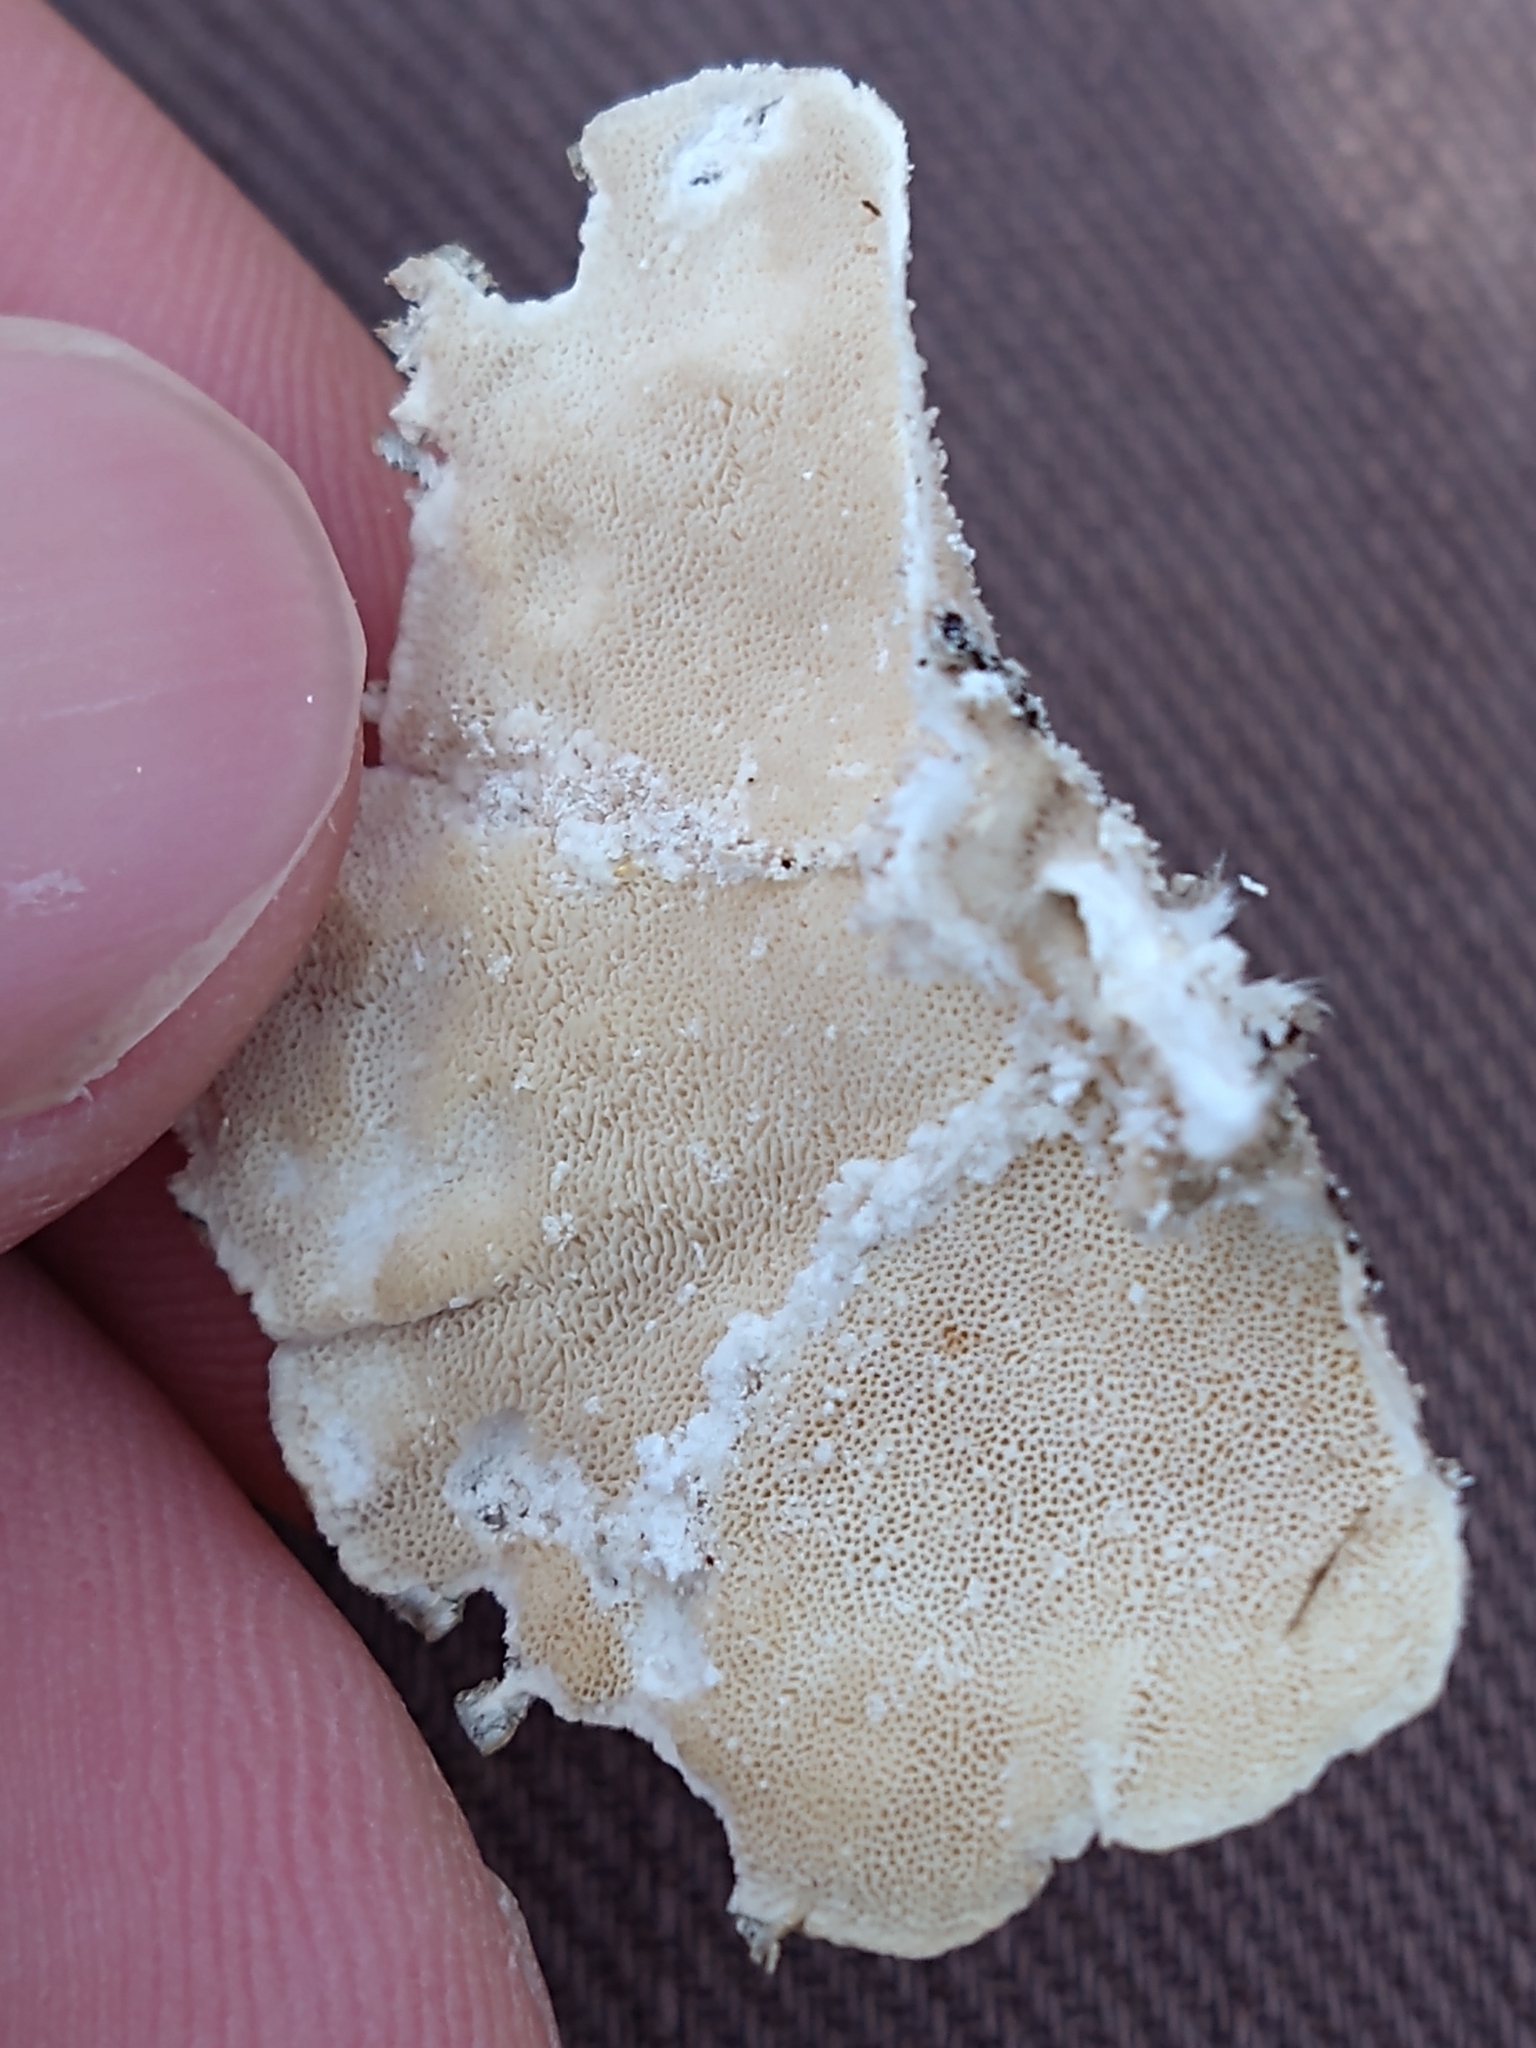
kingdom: Fungi
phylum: Basidiomycota
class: Agaricomycetes
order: Polyporales
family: Polyporaceae
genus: Trametes
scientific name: Trametes versicolor
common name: Turkeytail
